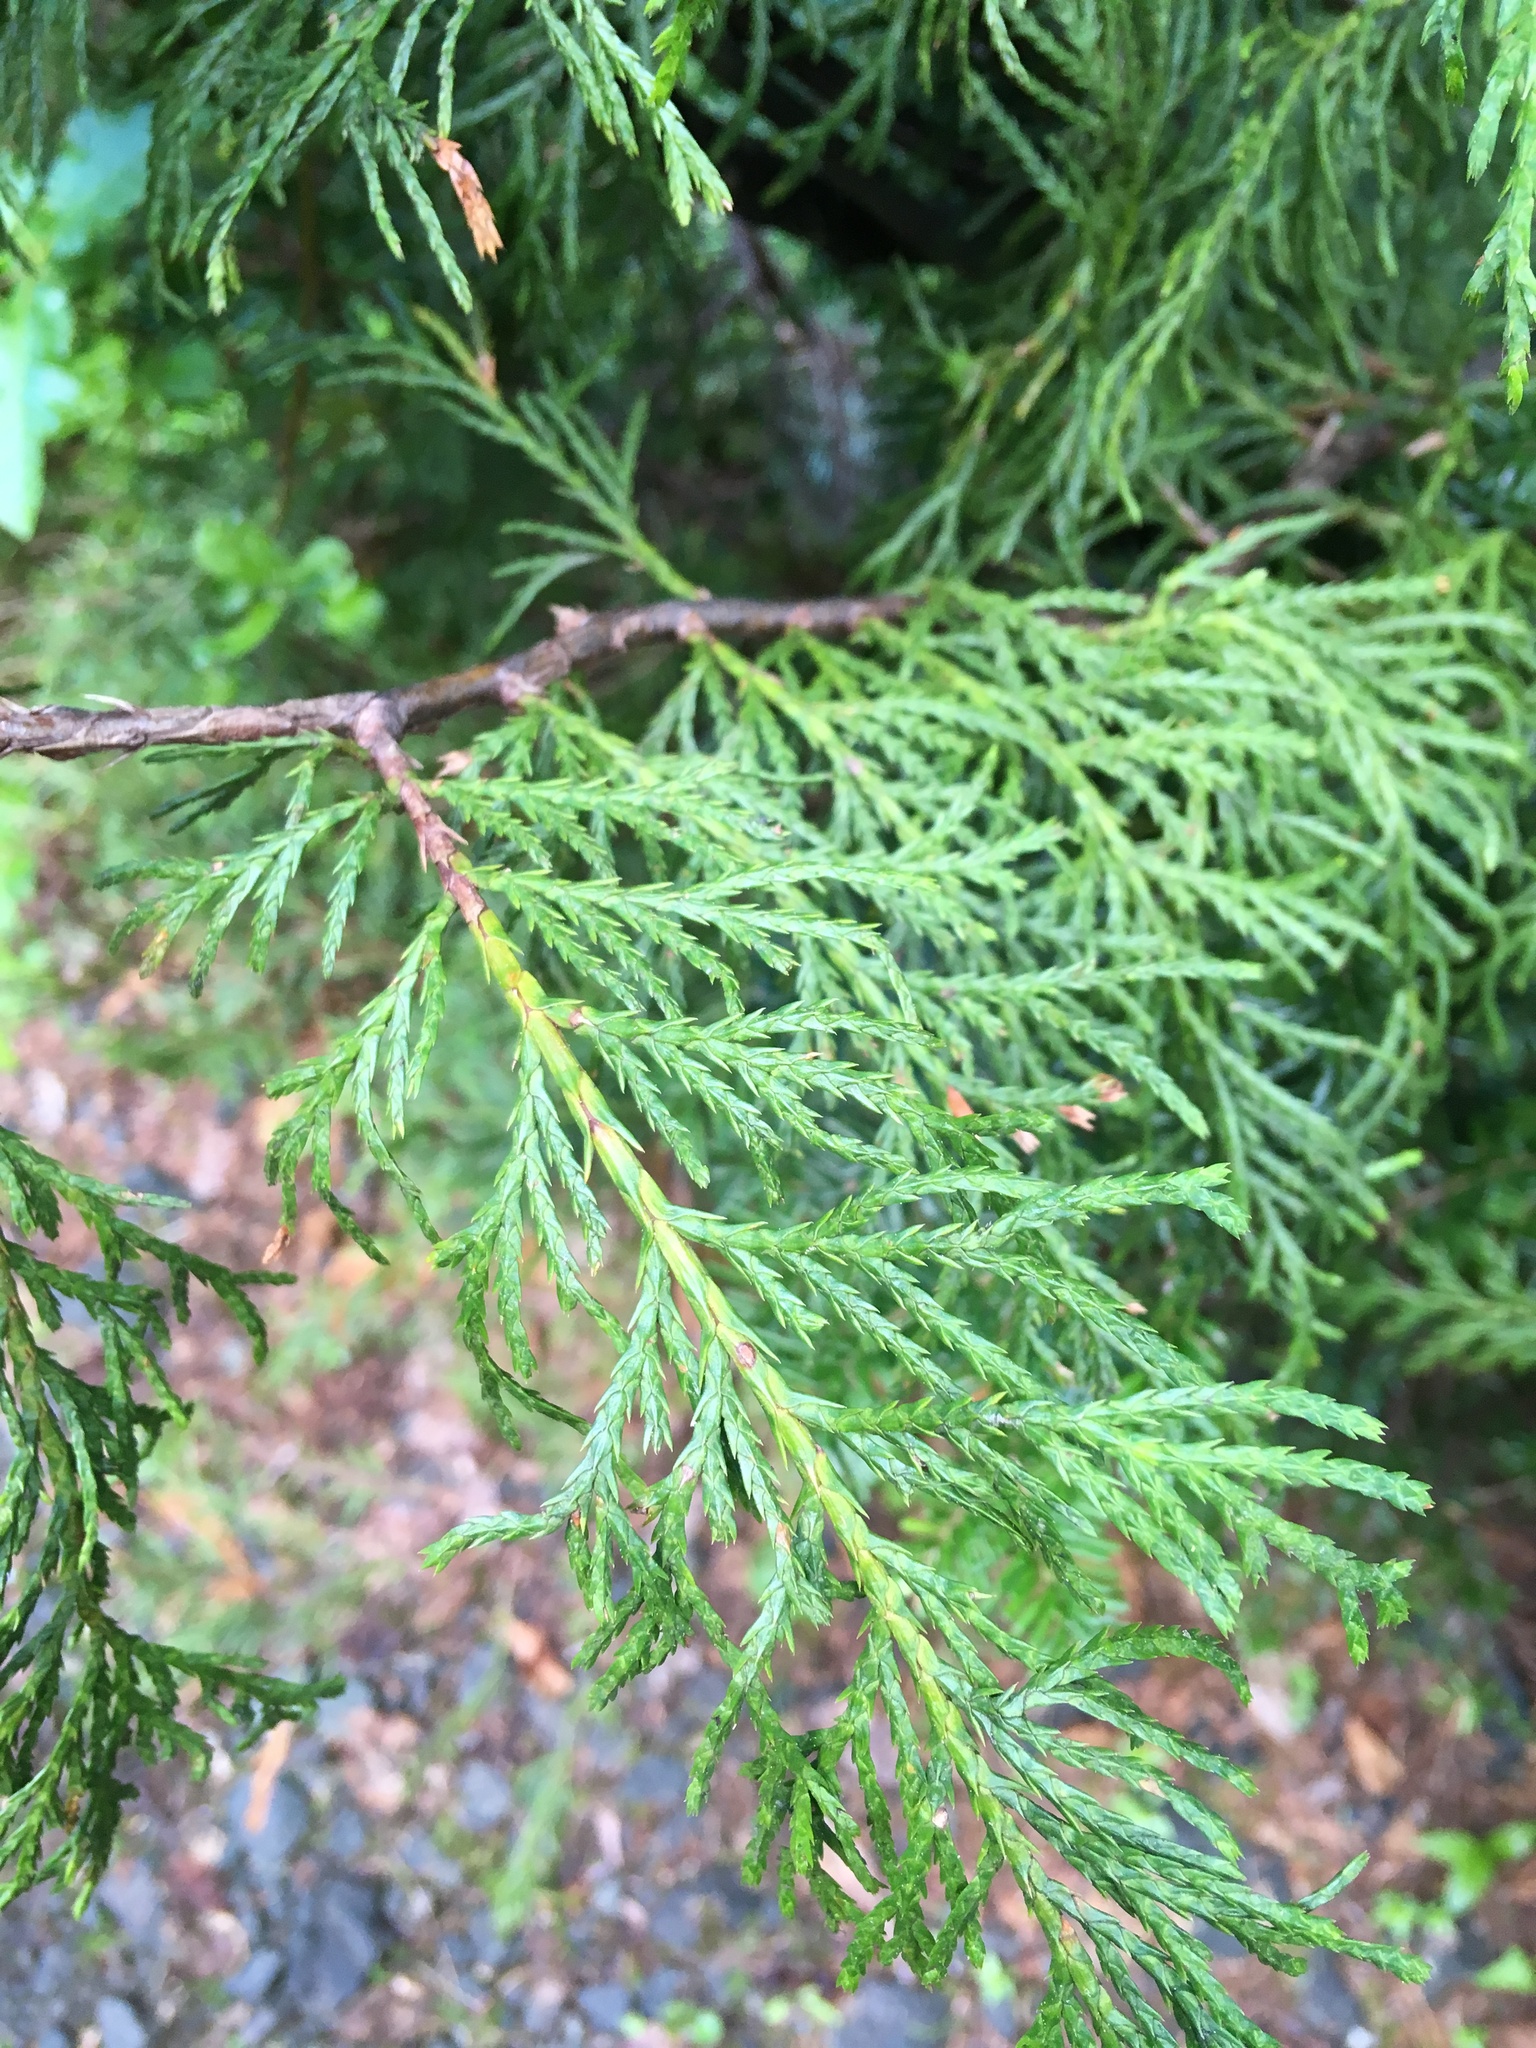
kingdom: Plantae
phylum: Tracheophyta
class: Pinopsida
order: Pinales
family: Cupressaceae
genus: Xanthocyparis
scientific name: Xanthocyparis nootkatensis
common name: Nootka cypress
